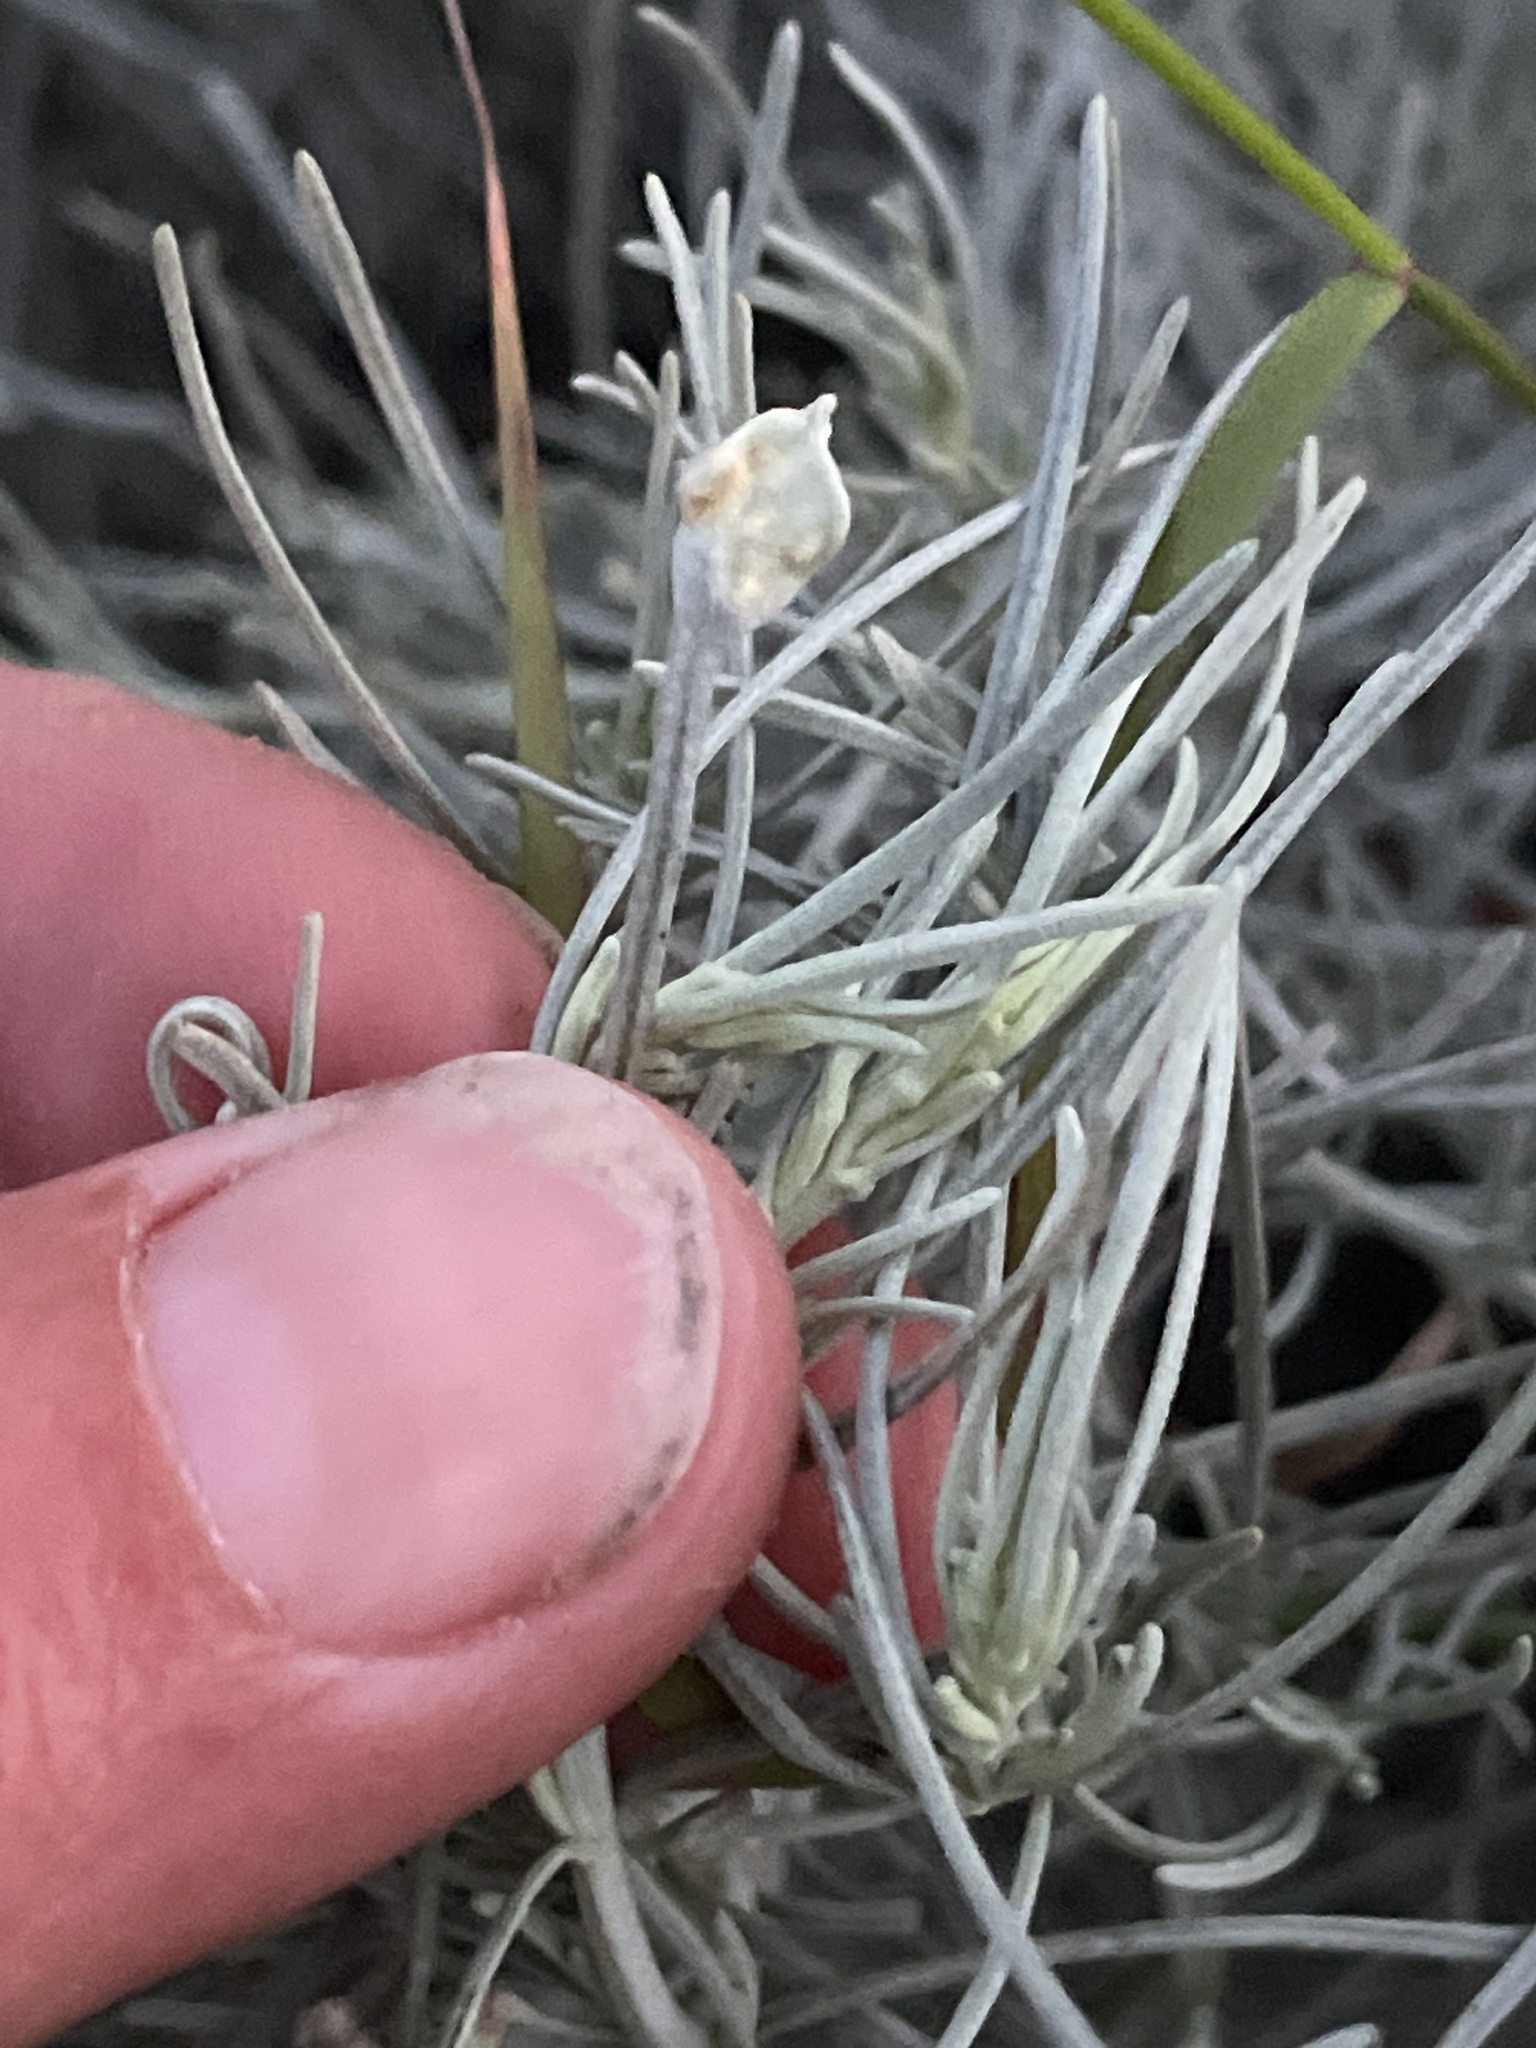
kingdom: Animalia
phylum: Arthropoda
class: Arachnida
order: Trombidiformes
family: Eriophyidae
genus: Aceria
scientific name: Aceria
